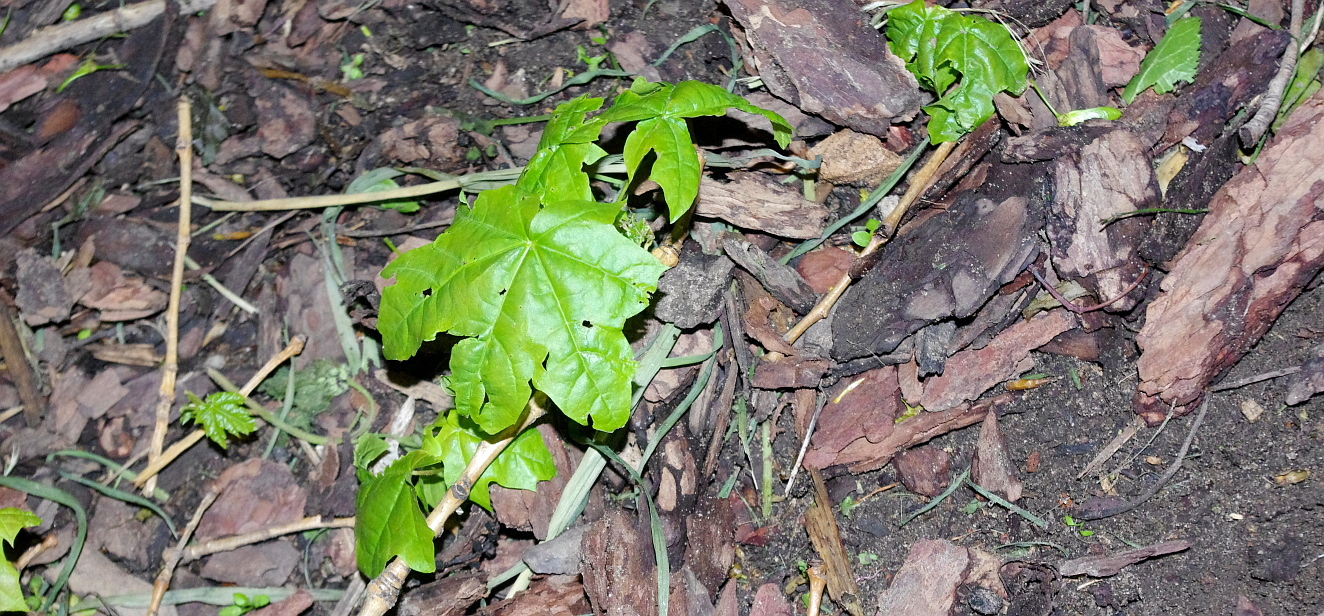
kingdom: Plantae
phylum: Tracheophyta
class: Magnoliopsida
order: Sapindales
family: Sapindaceae
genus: Acer
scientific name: Acer platanoides
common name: Norway maple
